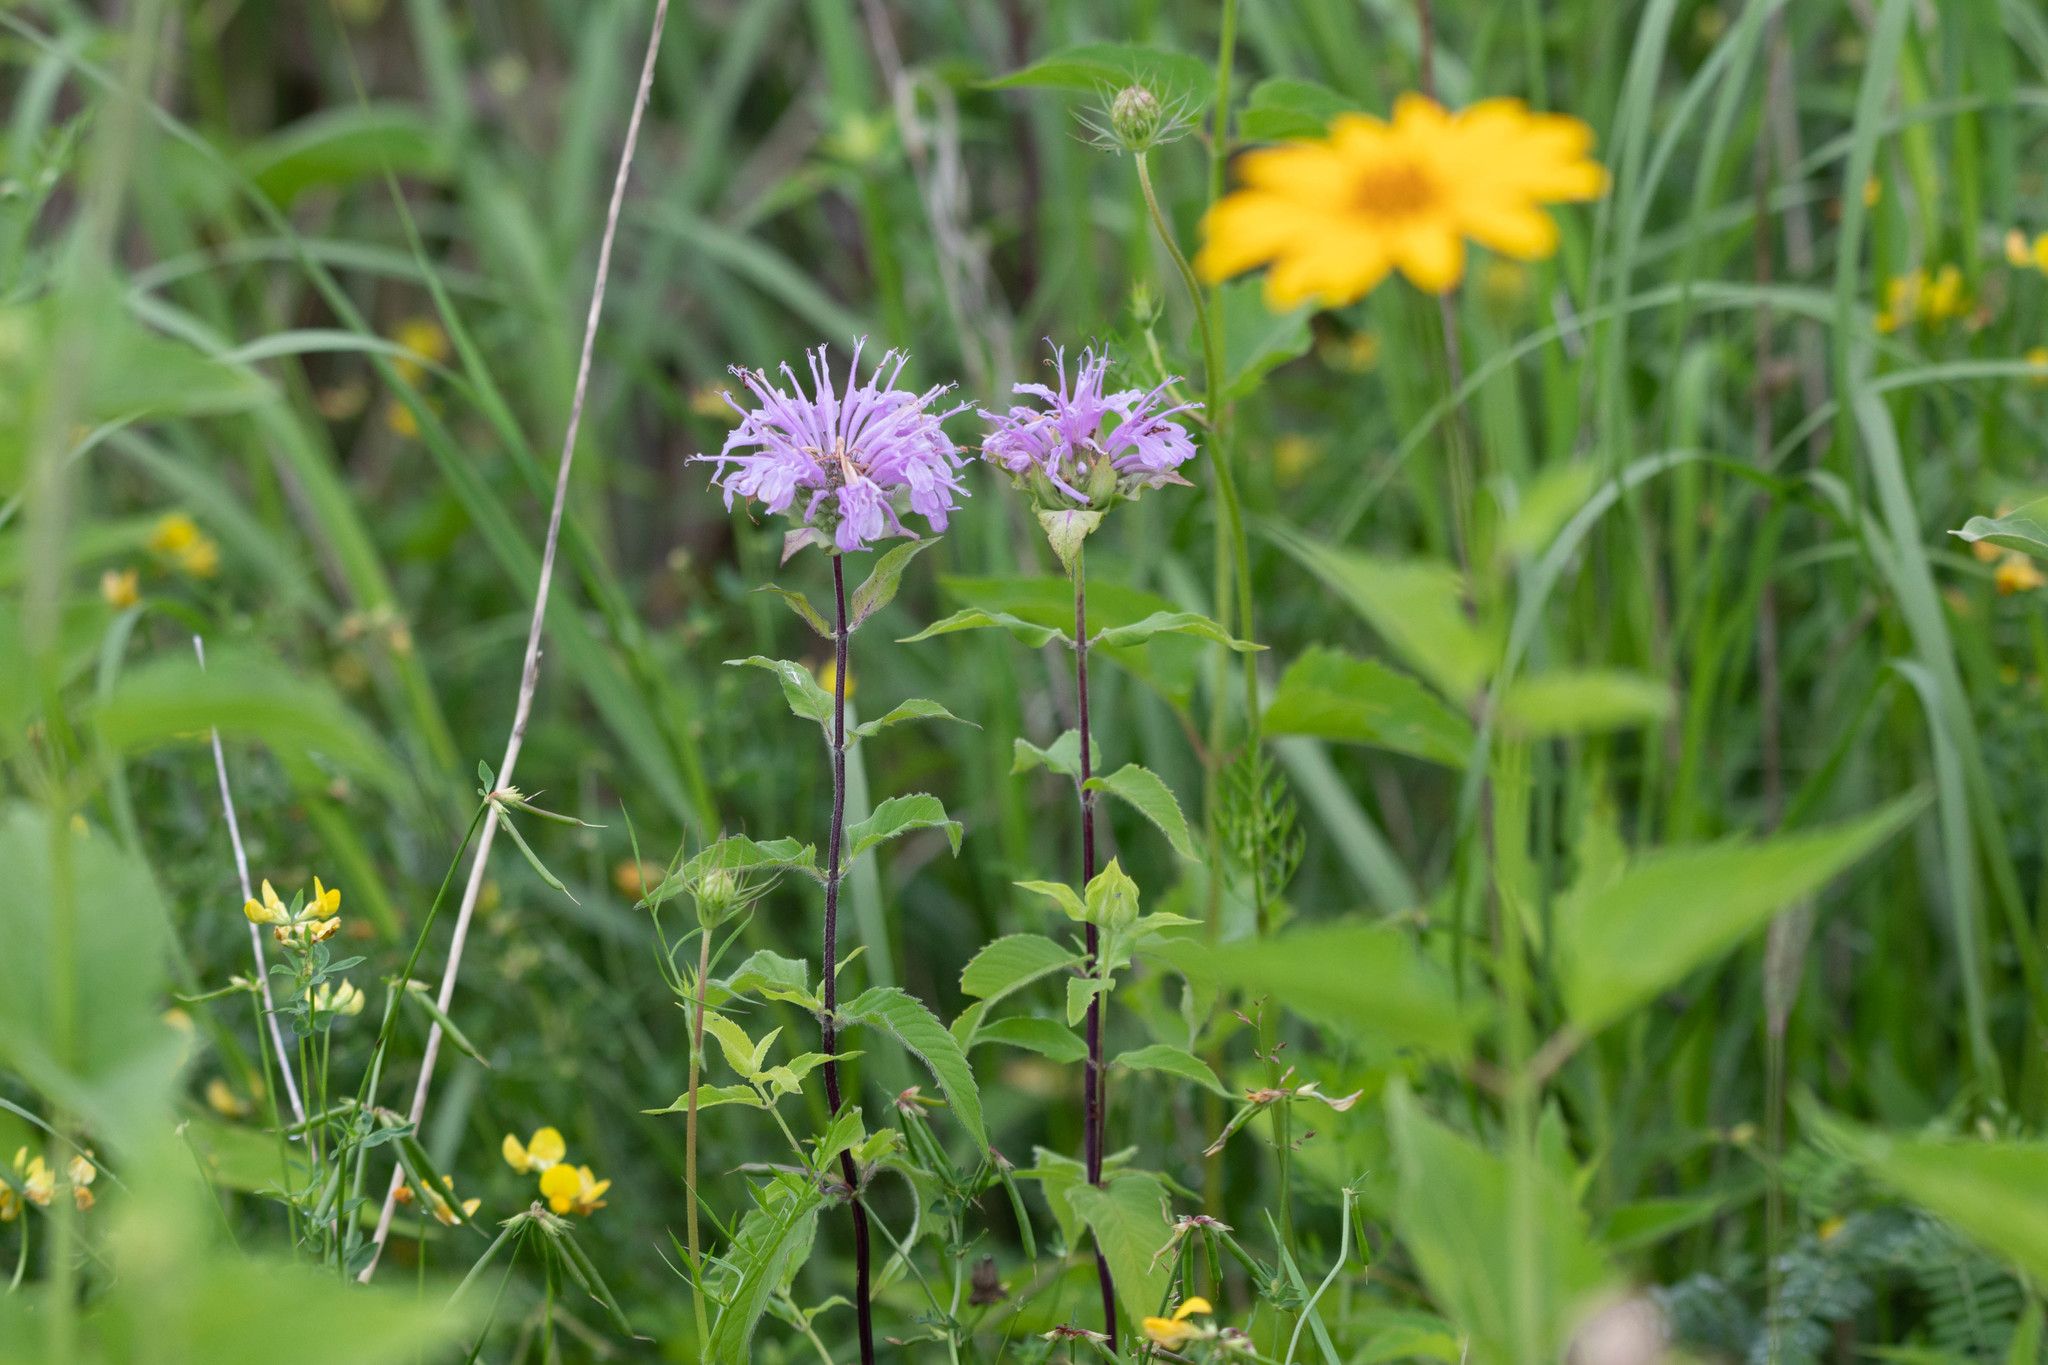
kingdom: Plantae
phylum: Tracheophyta
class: Magnoliopsida
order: Lamiales
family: Lamiaceae
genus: Monarda
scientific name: Monarda fistulosa
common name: Purple beebalm
